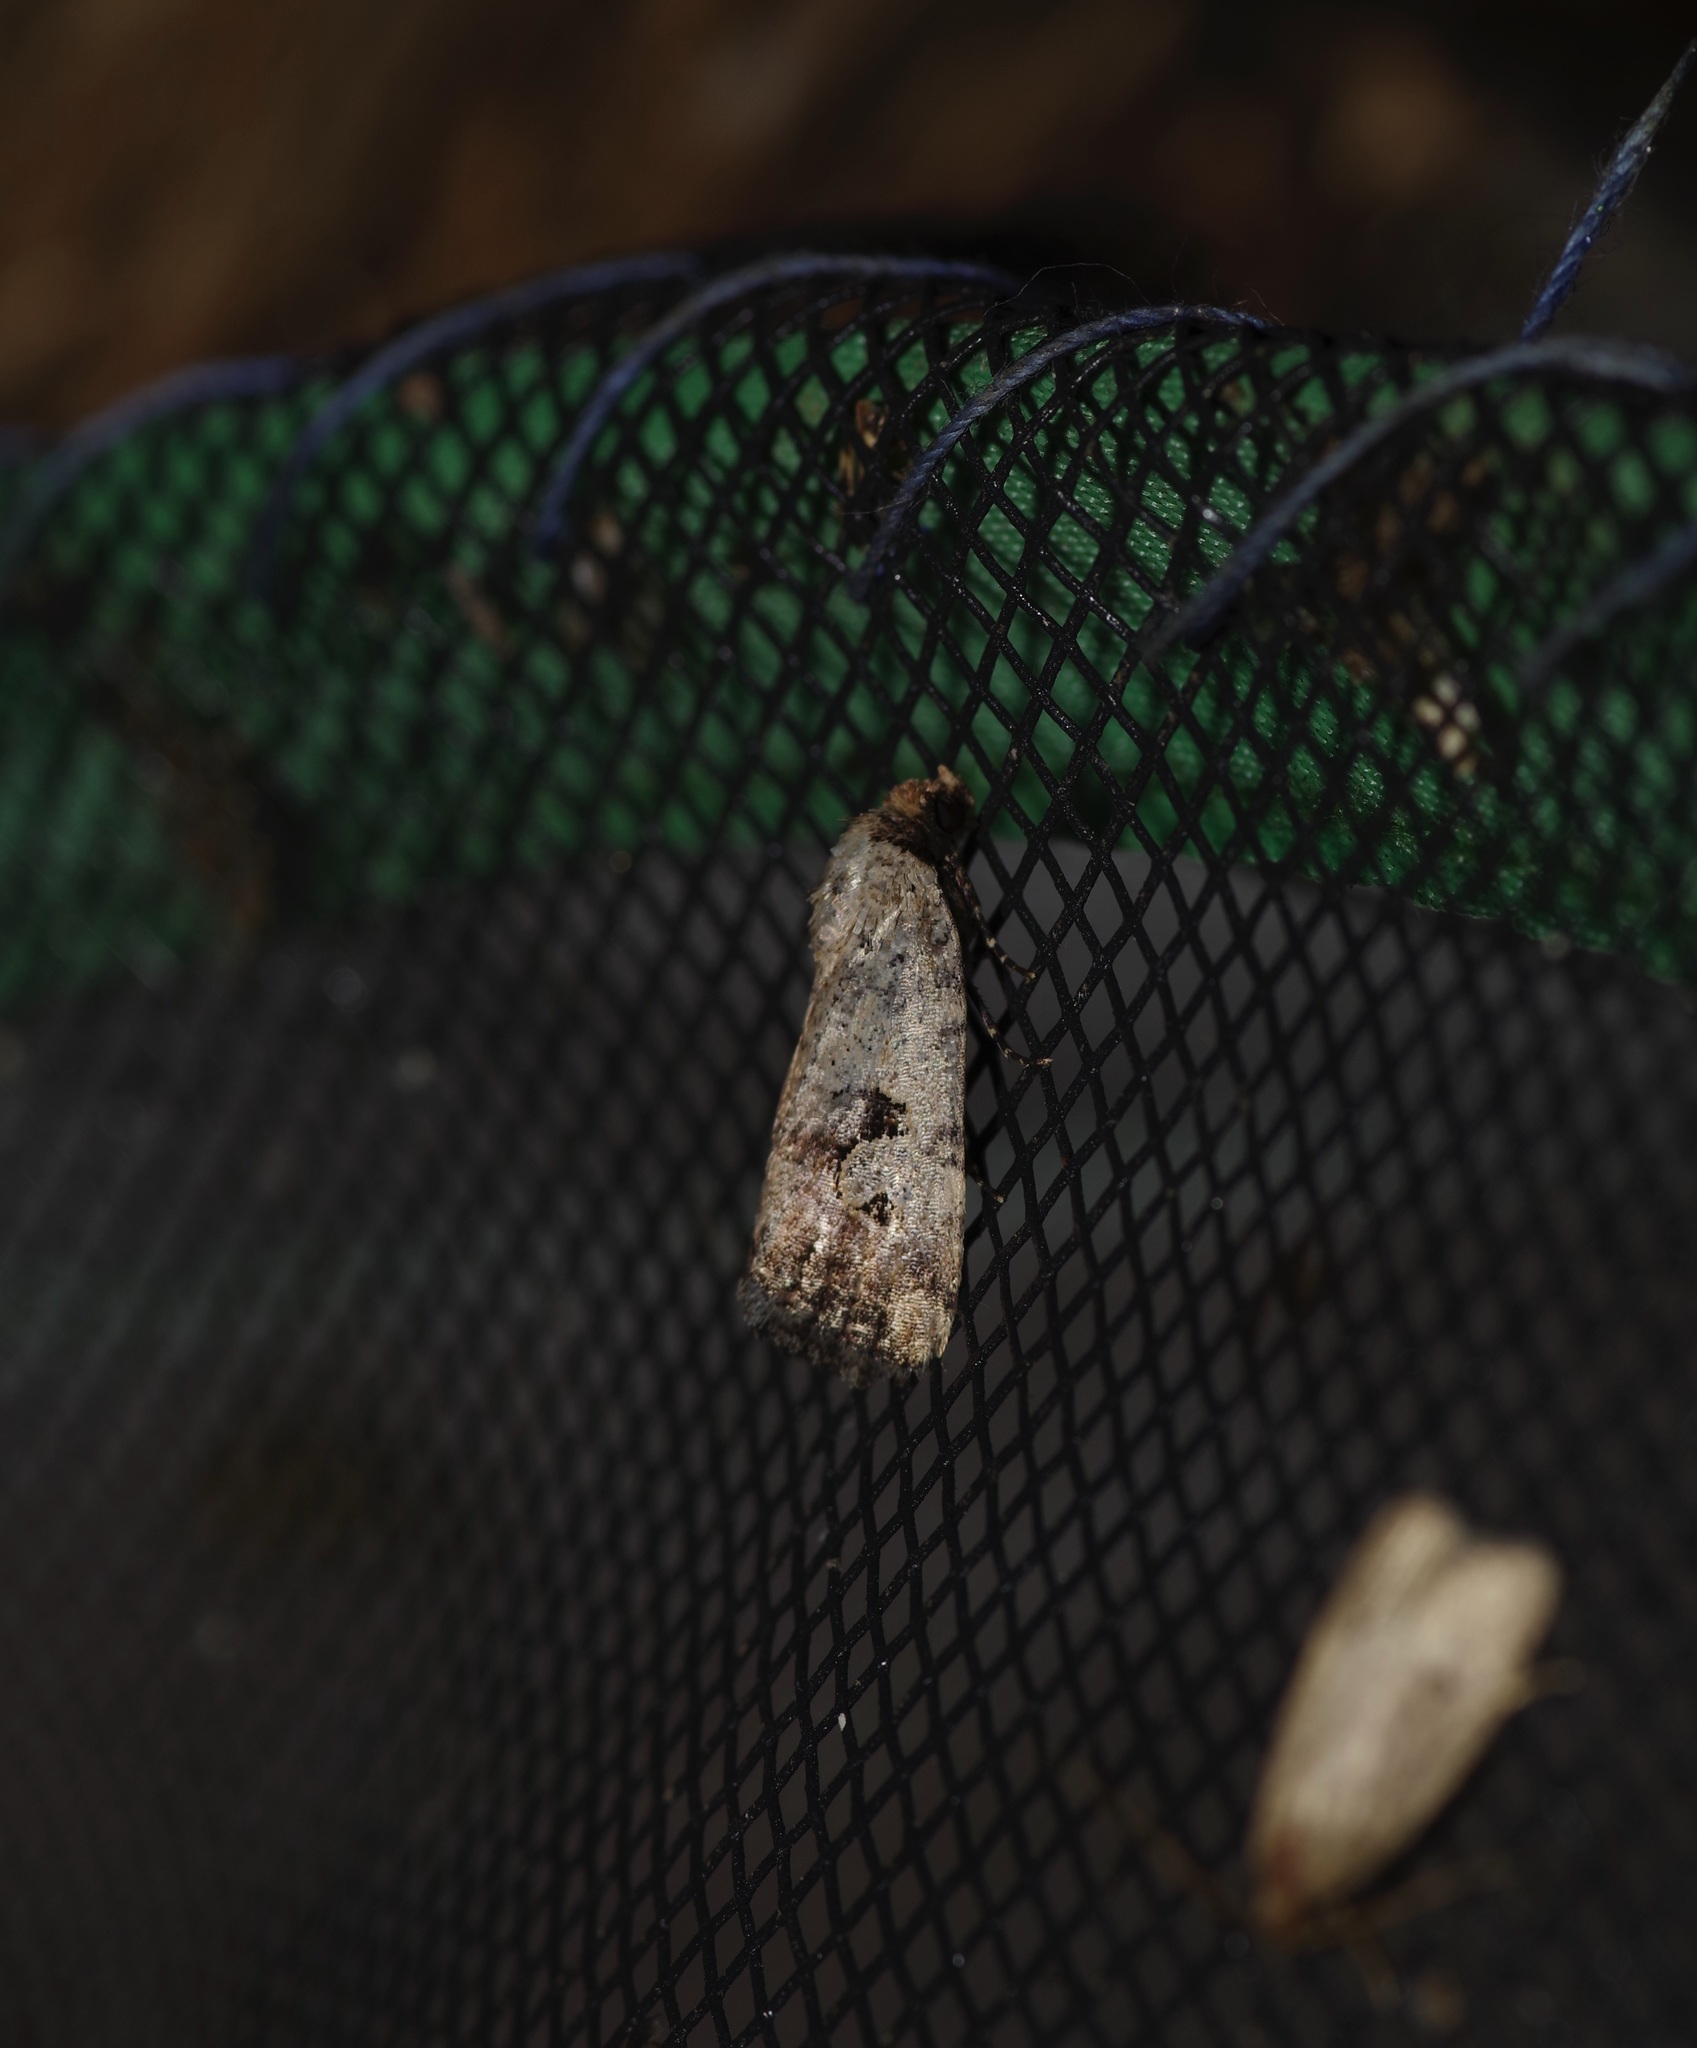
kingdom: Animalia
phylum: Arthropoda
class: Insecta
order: Lepidoptera
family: Noctuidae
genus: Elaphria
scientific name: Elaphria festivoides
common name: Festive midget
